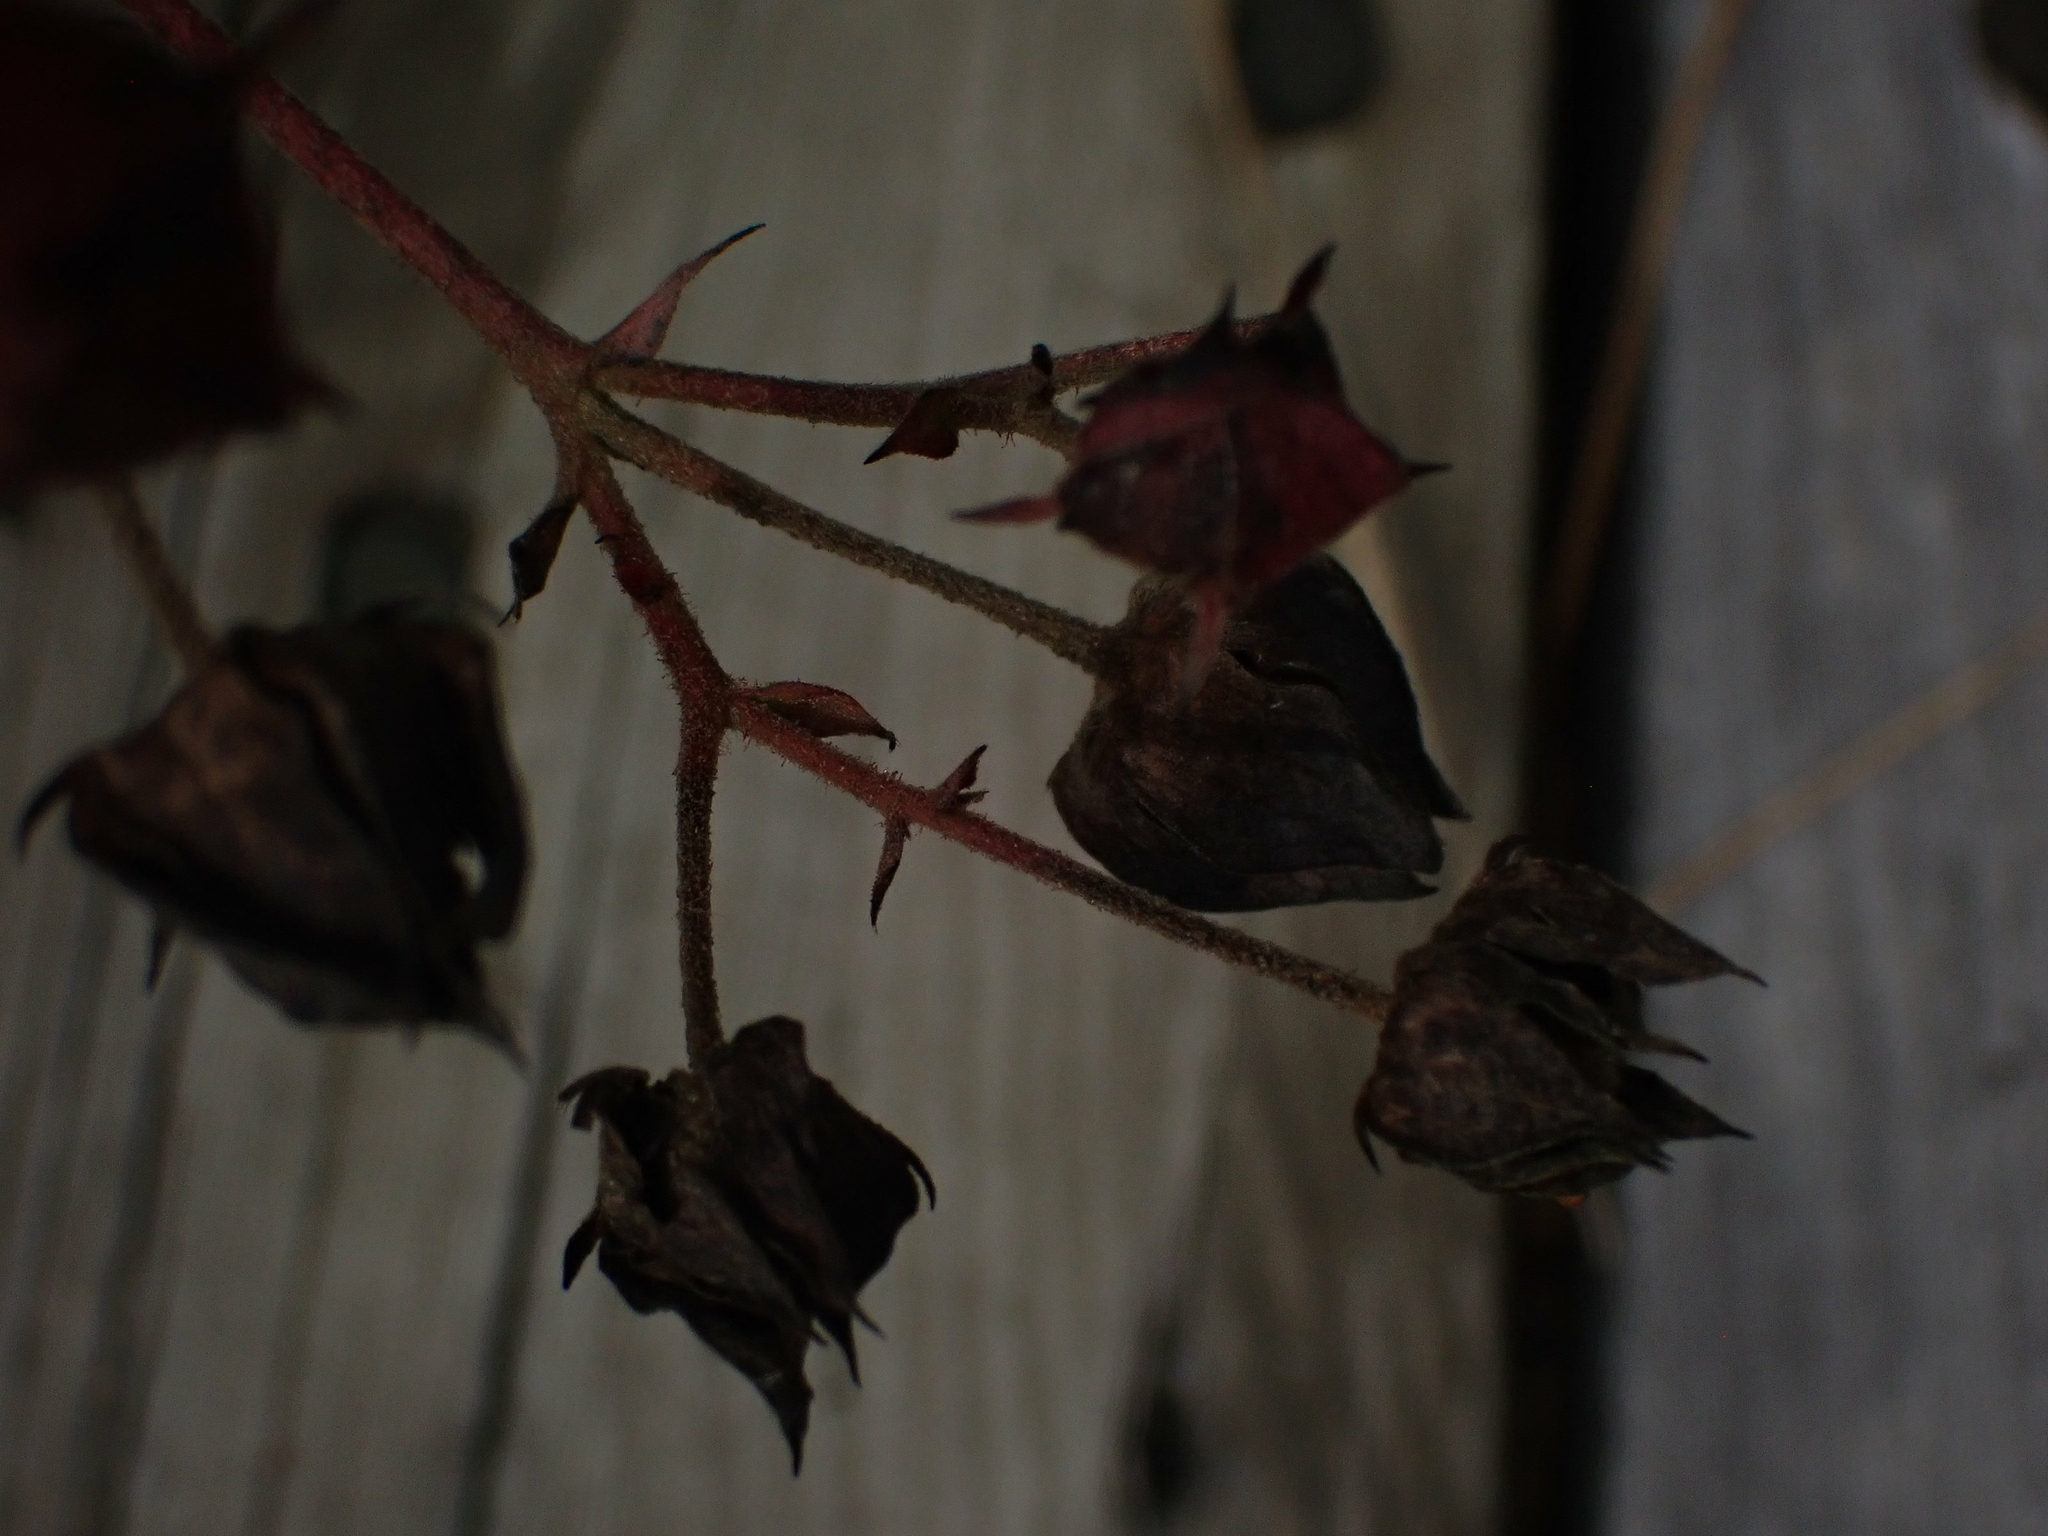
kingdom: Plantae
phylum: Tracheophyta
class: Magnoliopsida
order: Rosales
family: Rosaceae
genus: Comarum
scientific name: Comarum palustre
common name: Marsh cinquefoil
